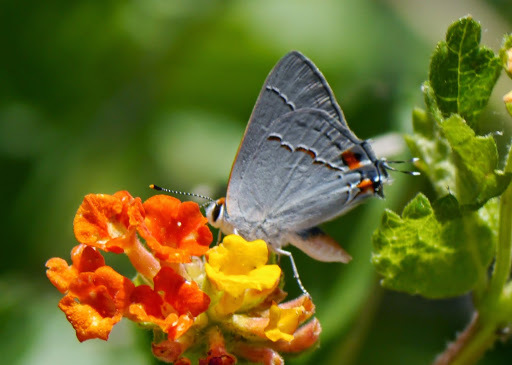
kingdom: Animalia
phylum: Arthropoda
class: Insecta
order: Lepidoptera
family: Lycaenidae
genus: Strymon
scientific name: Strymon melinus
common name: Gray hairstreak
